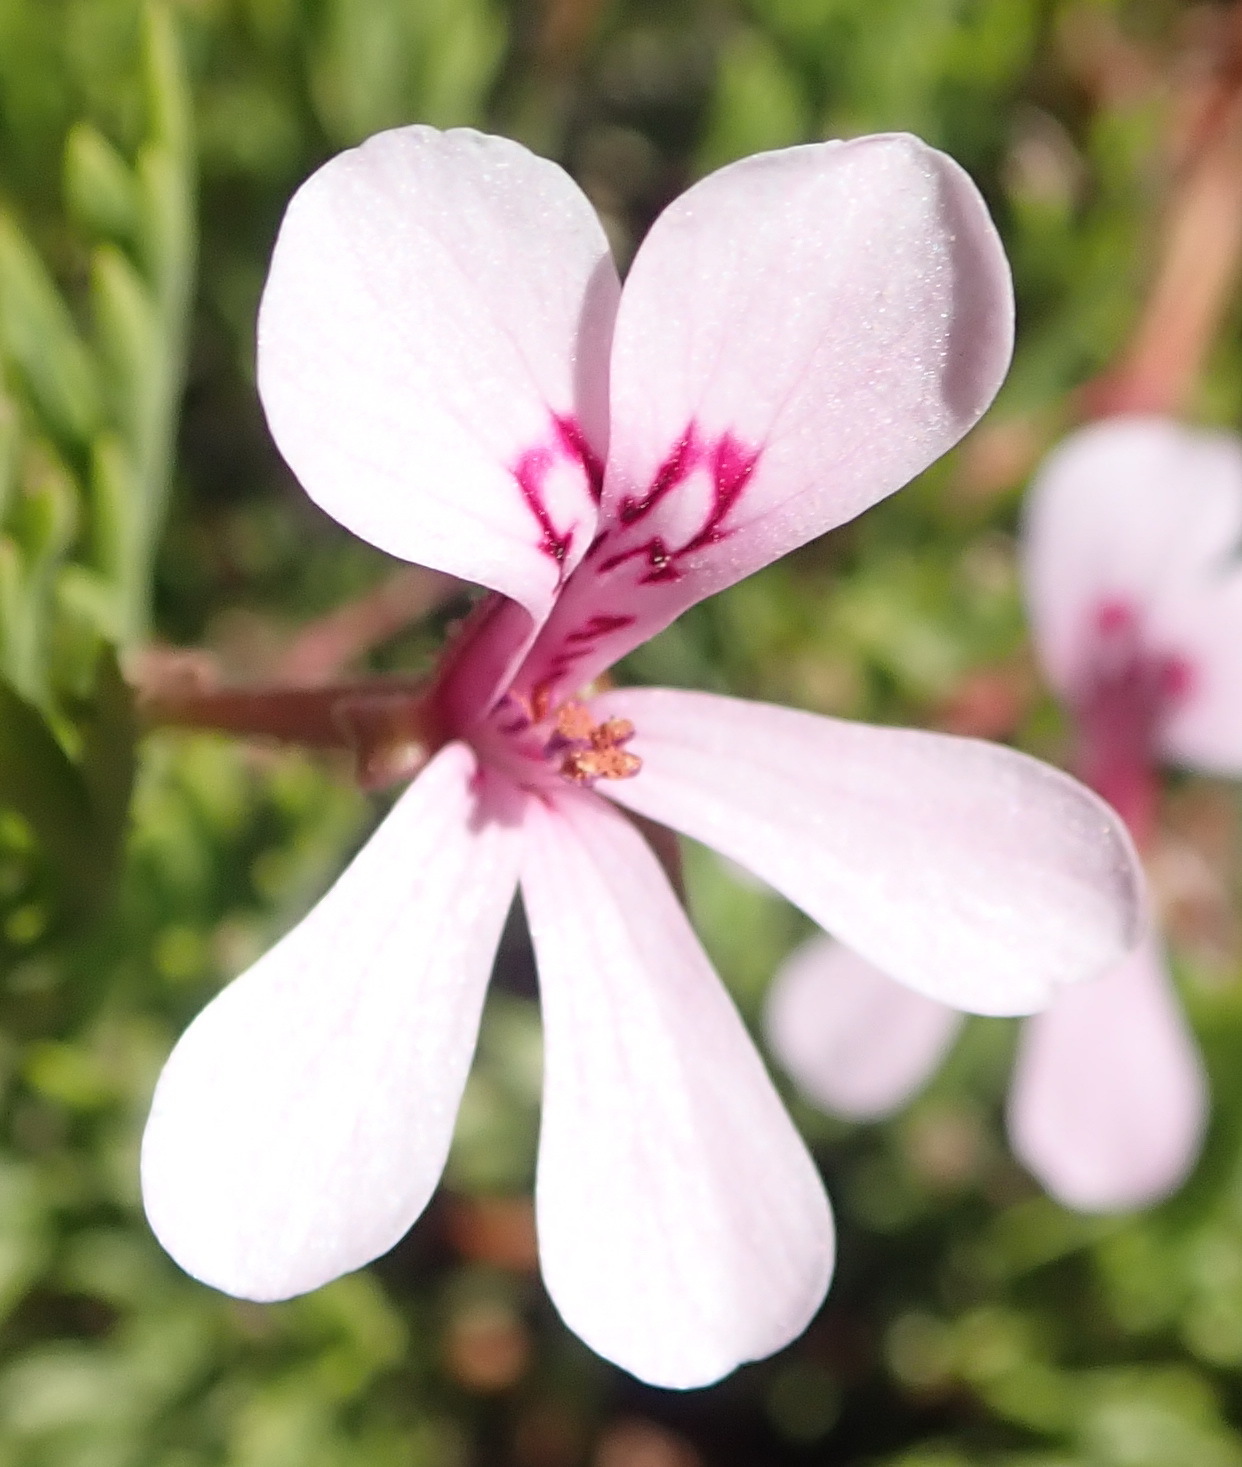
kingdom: Plantae
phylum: Tracheophyta
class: Magnoliopsida
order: Geraniales
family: Geraniaceae
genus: Pelargonium
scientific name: Pelargonium laevigatum
